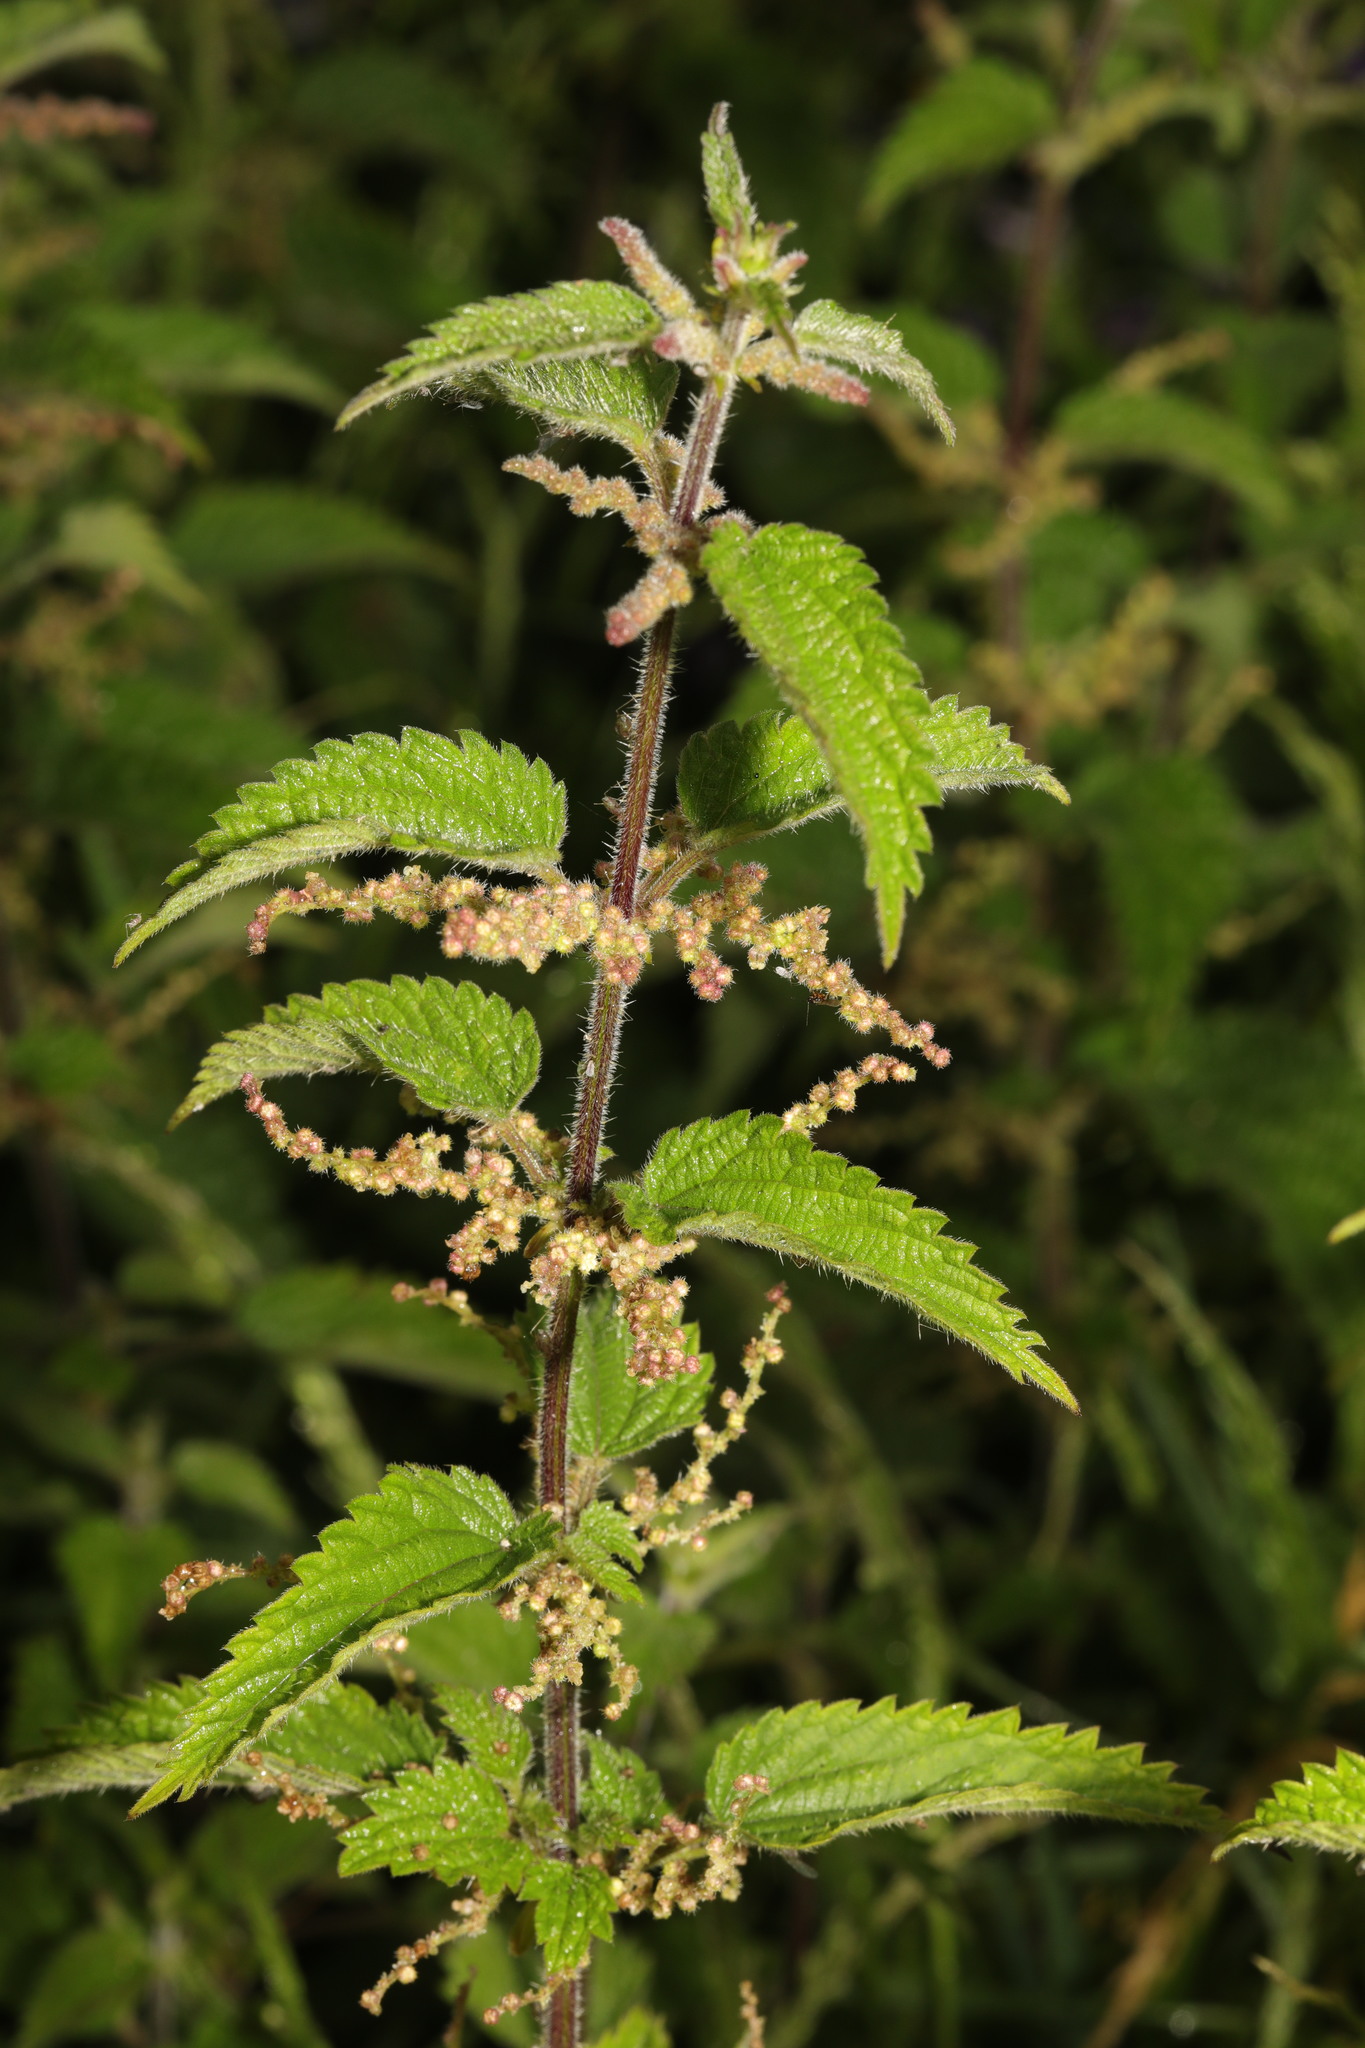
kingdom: Plantae
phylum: Tracheophyta
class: Magnoliopsida
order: Rosales
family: Urticaceae
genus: Urtica
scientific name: Urtica dioica
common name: Common nettle
